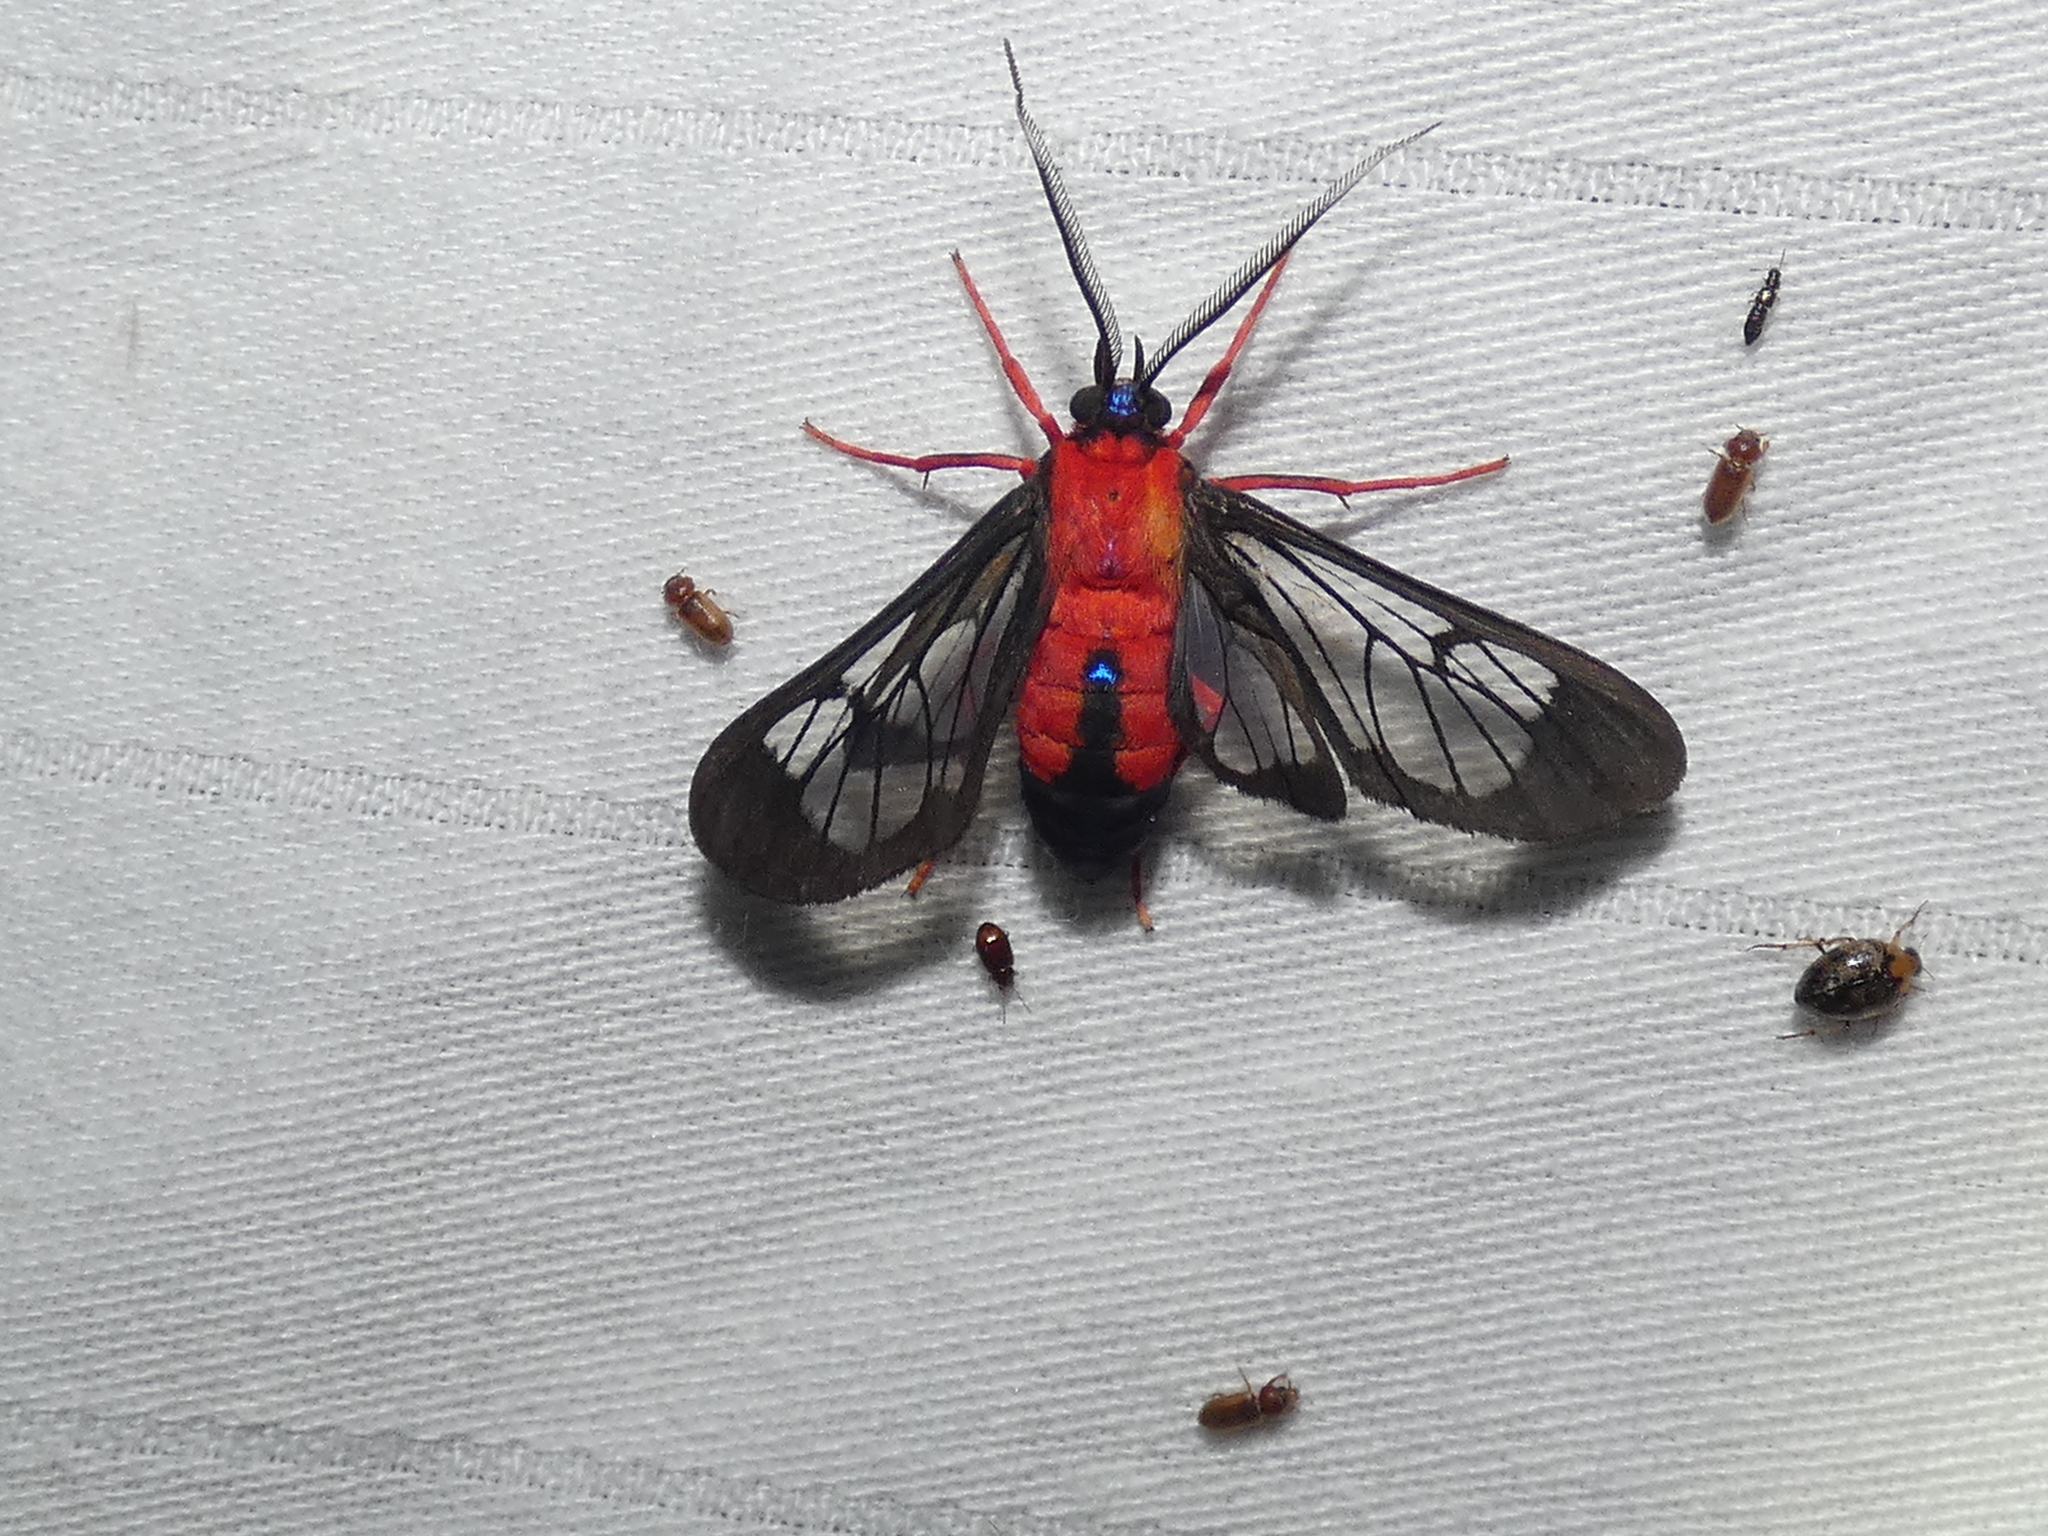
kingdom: Animalia
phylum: Arthropoda
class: Insecta
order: Lepidoptera
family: Erebidae
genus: Cosmosoma
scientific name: Cosmosoma myrodora
